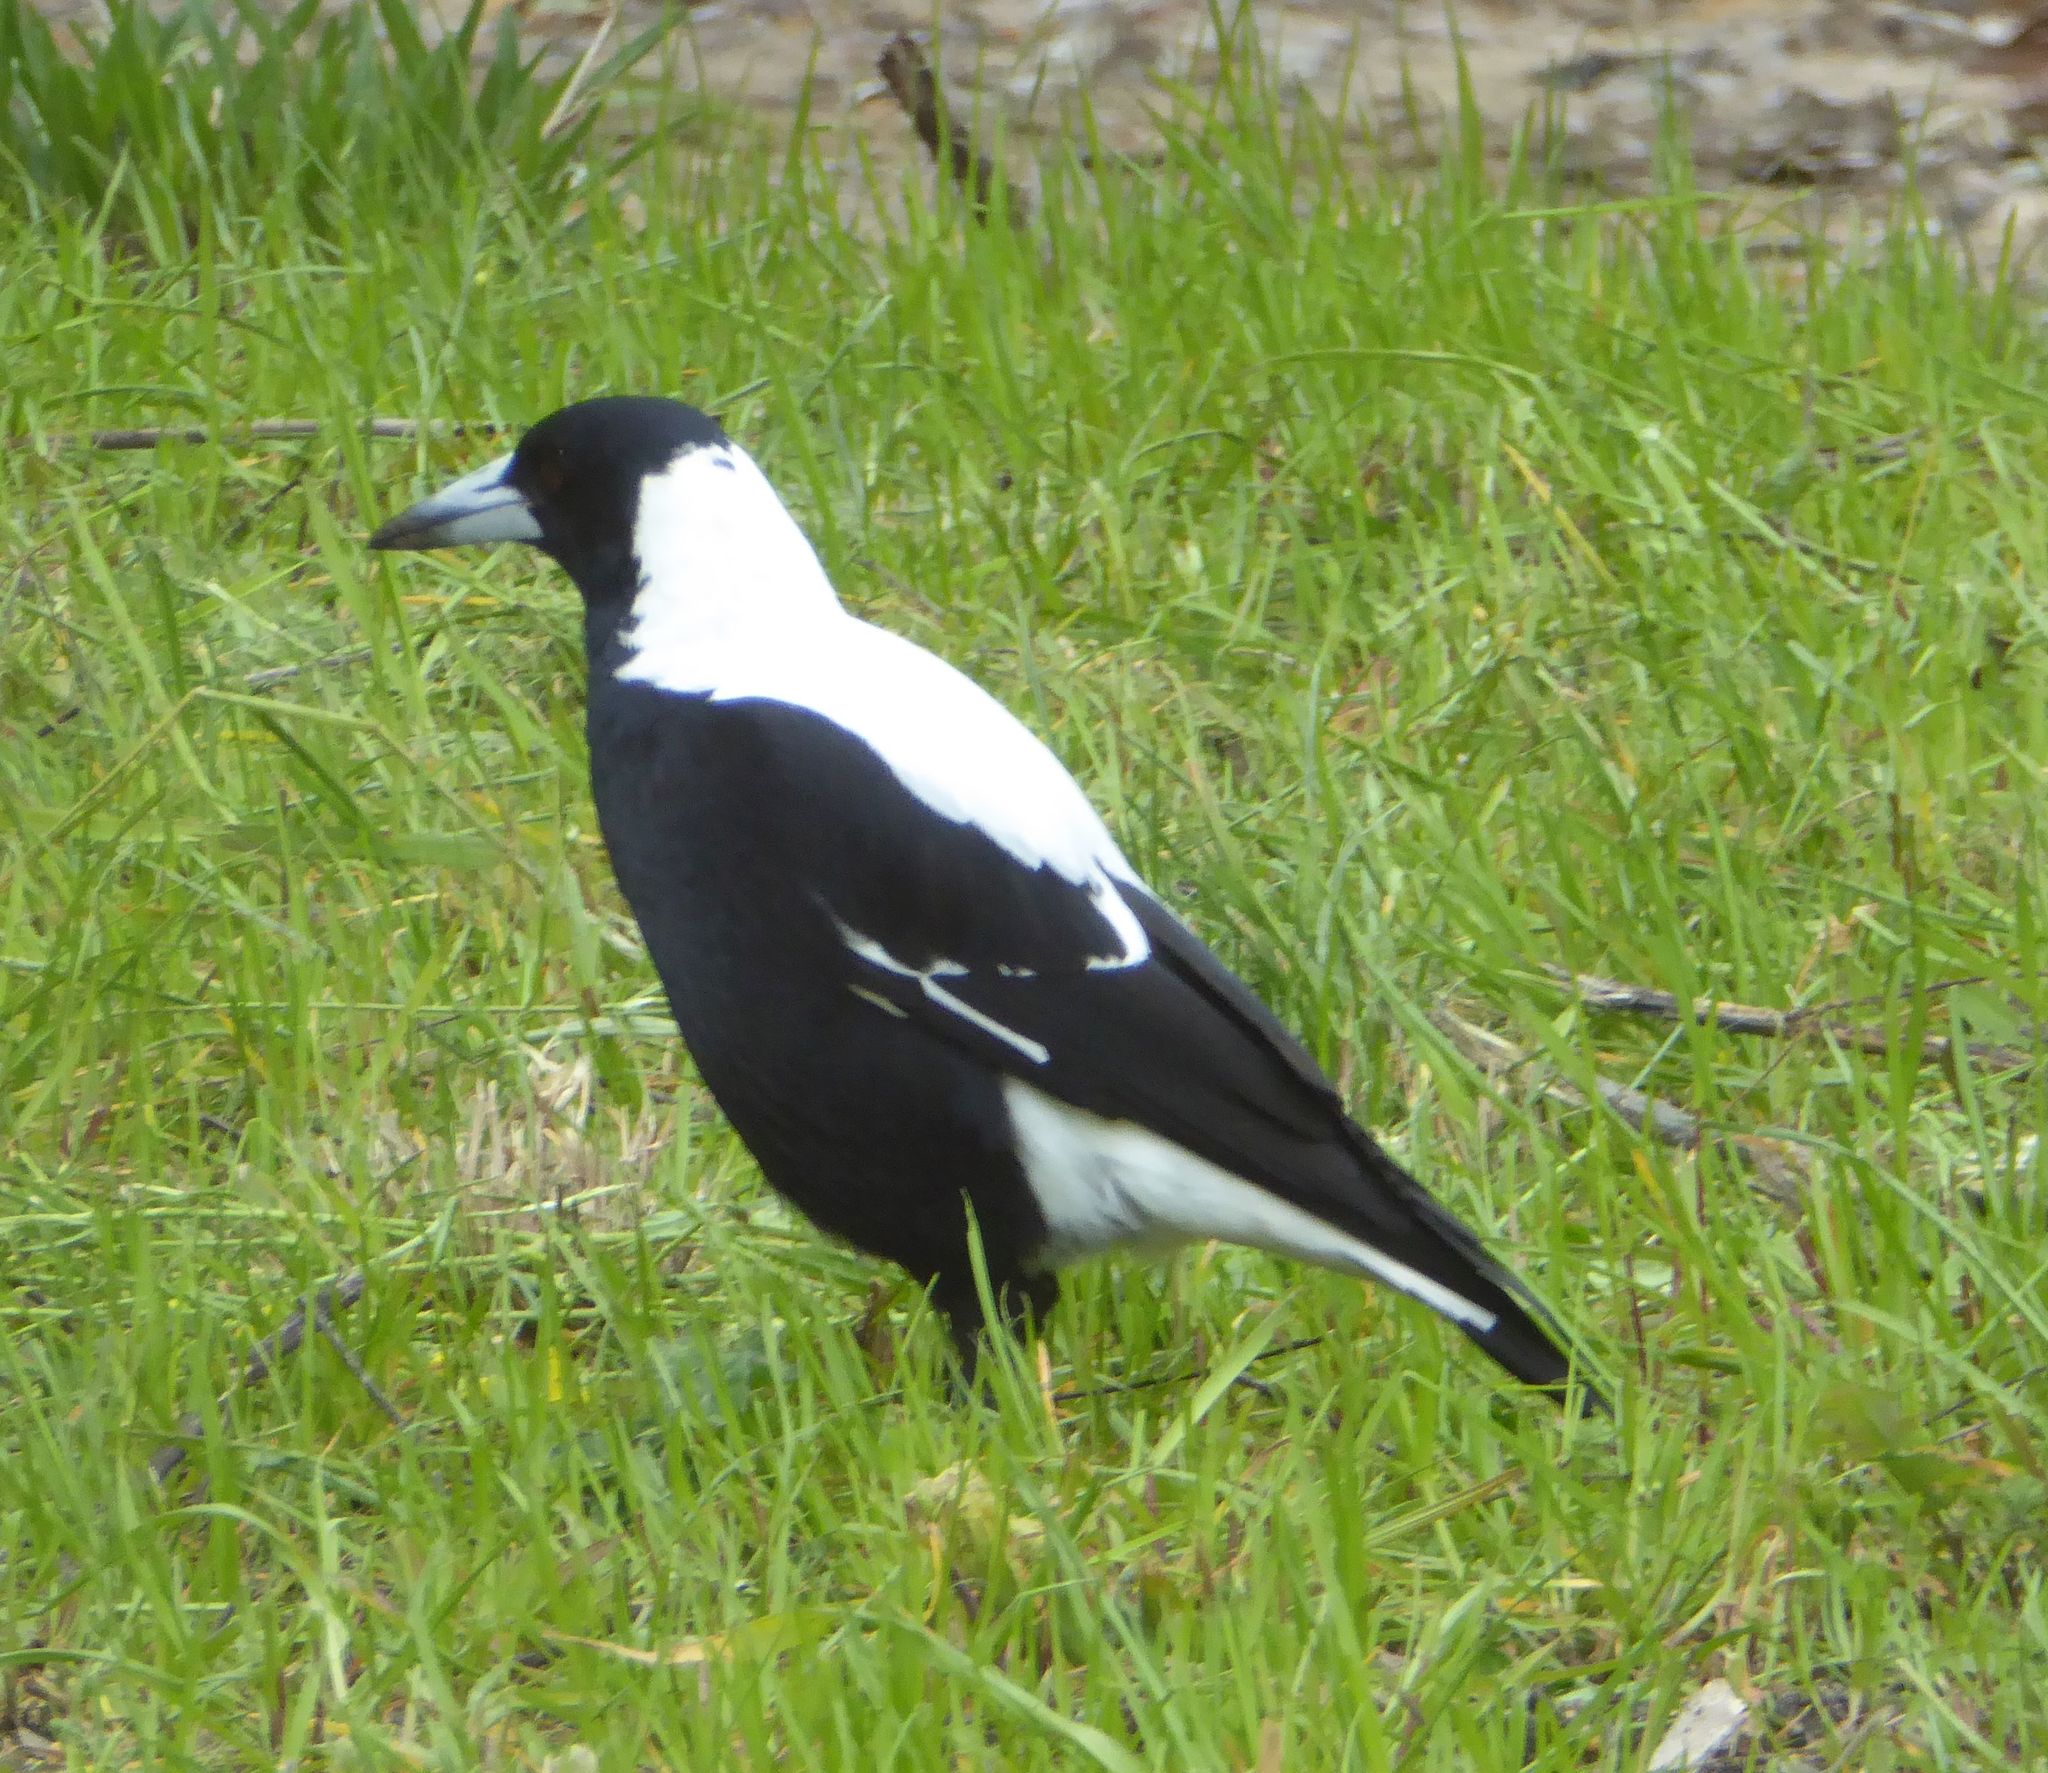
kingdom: Animalia
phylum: Chordata
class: Aves
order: Passeriformes
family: Cracticidae
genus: Gymnorhina
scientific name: Gymnorhina tibicen
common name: Australian magpie
